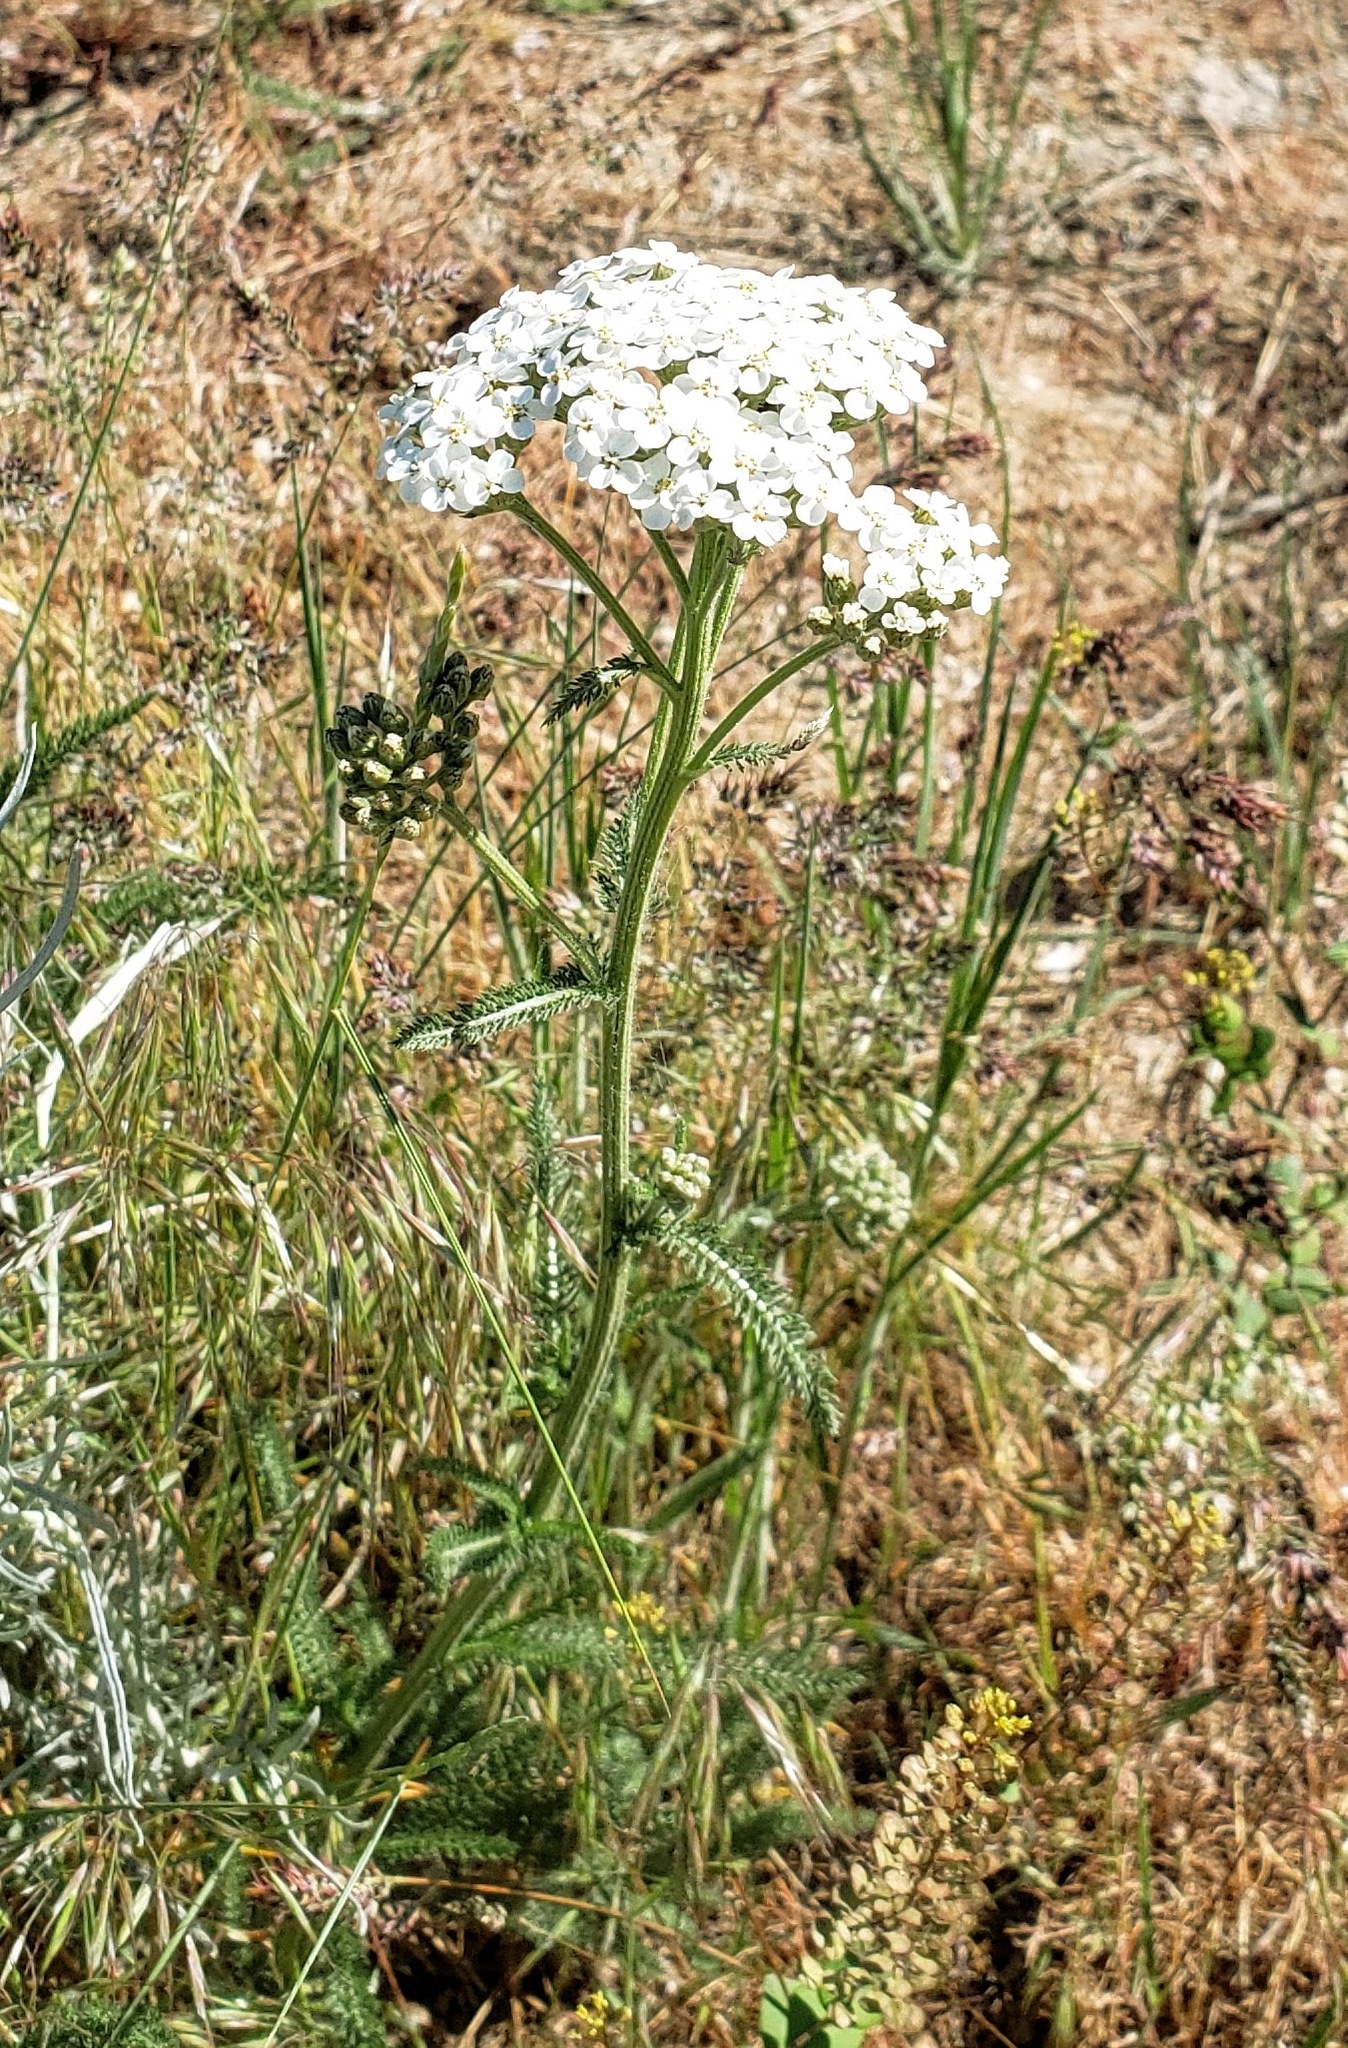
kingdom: Plantae
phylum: Tracheophyta
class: Magnoliopsida
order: Asterales
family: Asteraceae
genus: Achillea
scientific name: Achillea millefolium
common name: Yarrow
